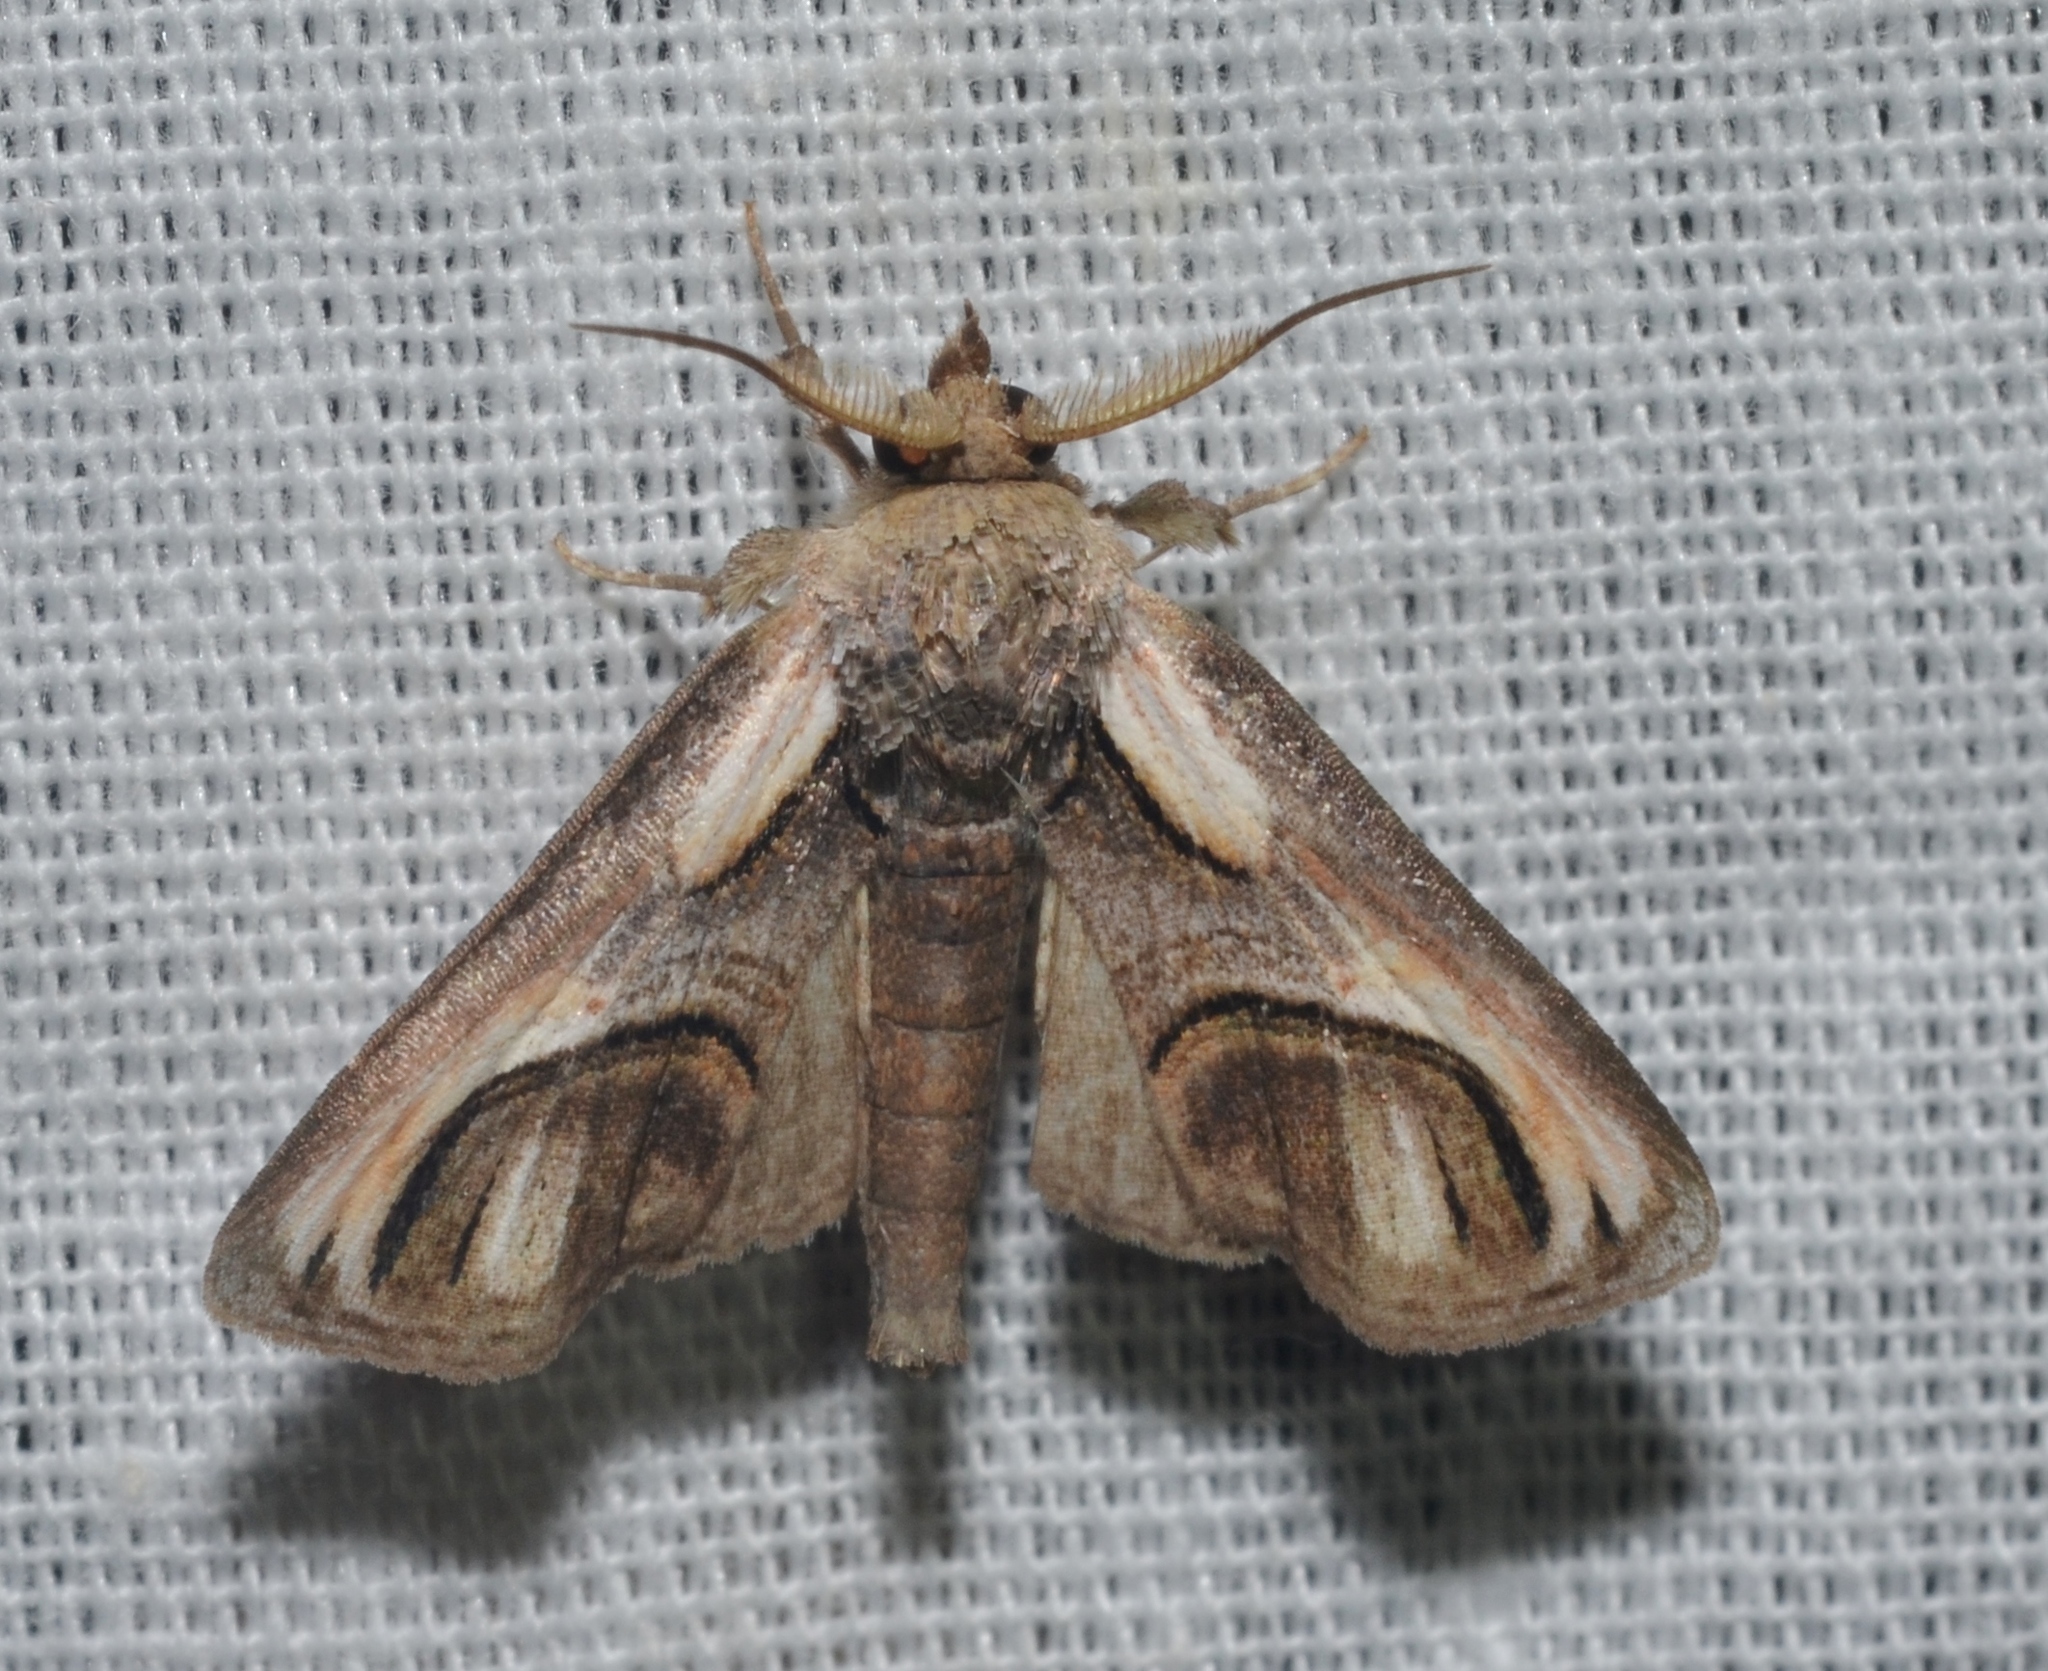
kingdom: Animalia
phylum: Arthropoda
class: Insecta
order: Lepidoptera
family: Euteliidae
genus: Paectes
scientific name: Paectes oculatrix
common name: Eyed paectes moth
